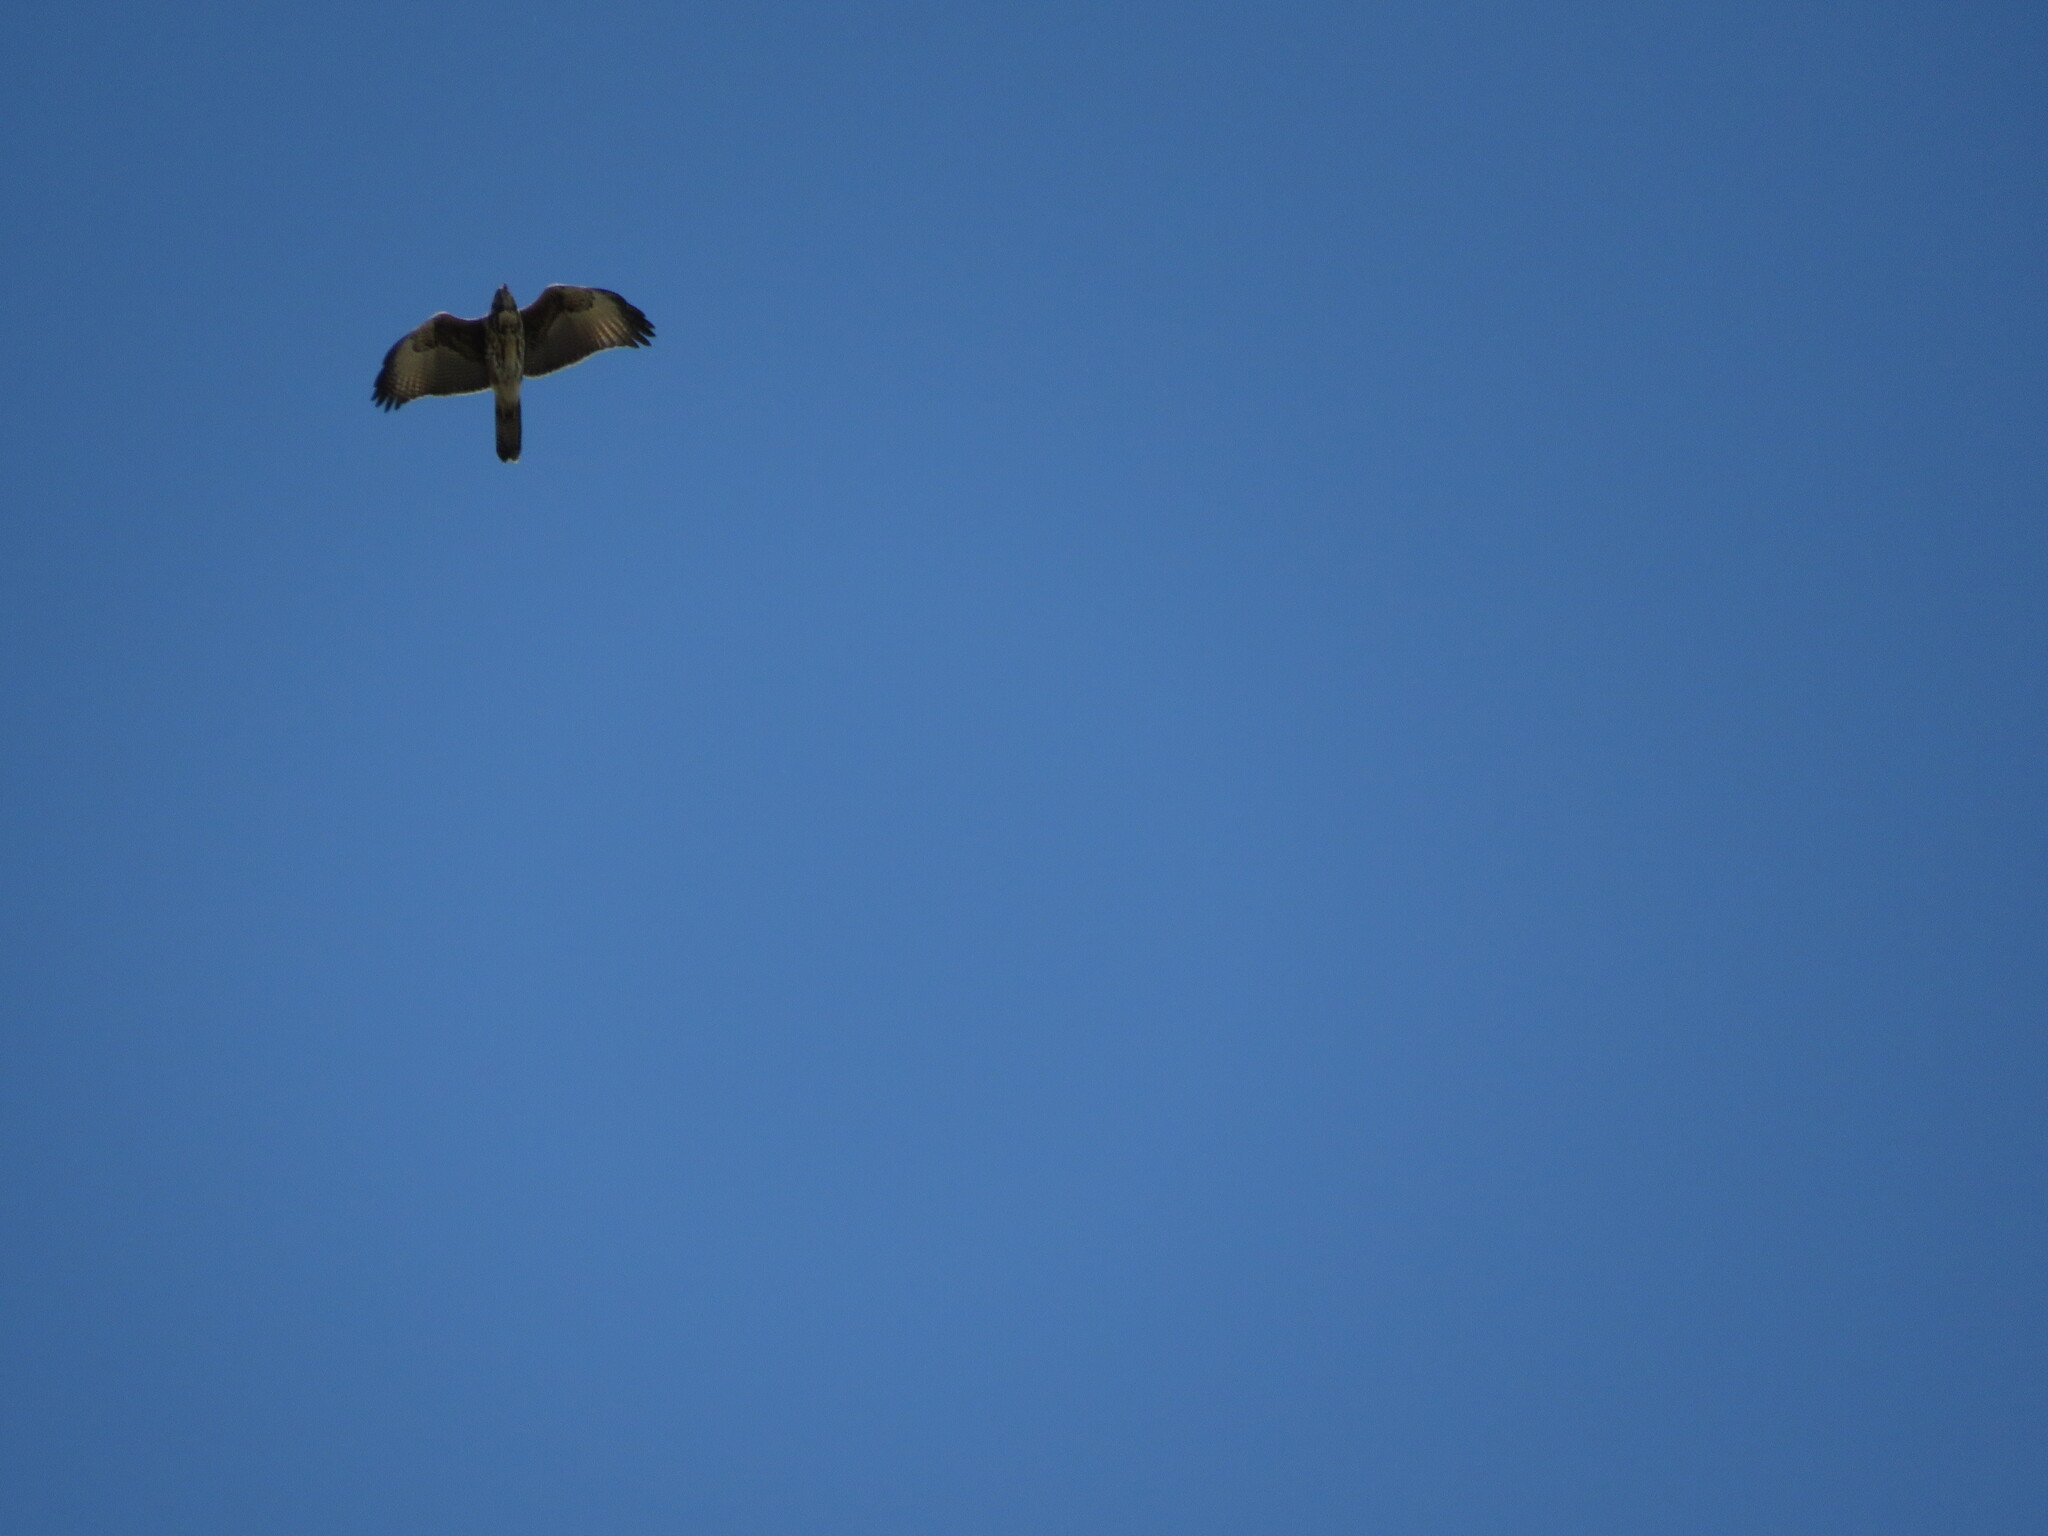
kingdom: Animalia
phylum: Chordata
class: Aves
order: Accipitriformes
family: Accipitridae
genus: Parabuteo
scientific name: Parabuteo unicinctus
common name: Harris's hawk
